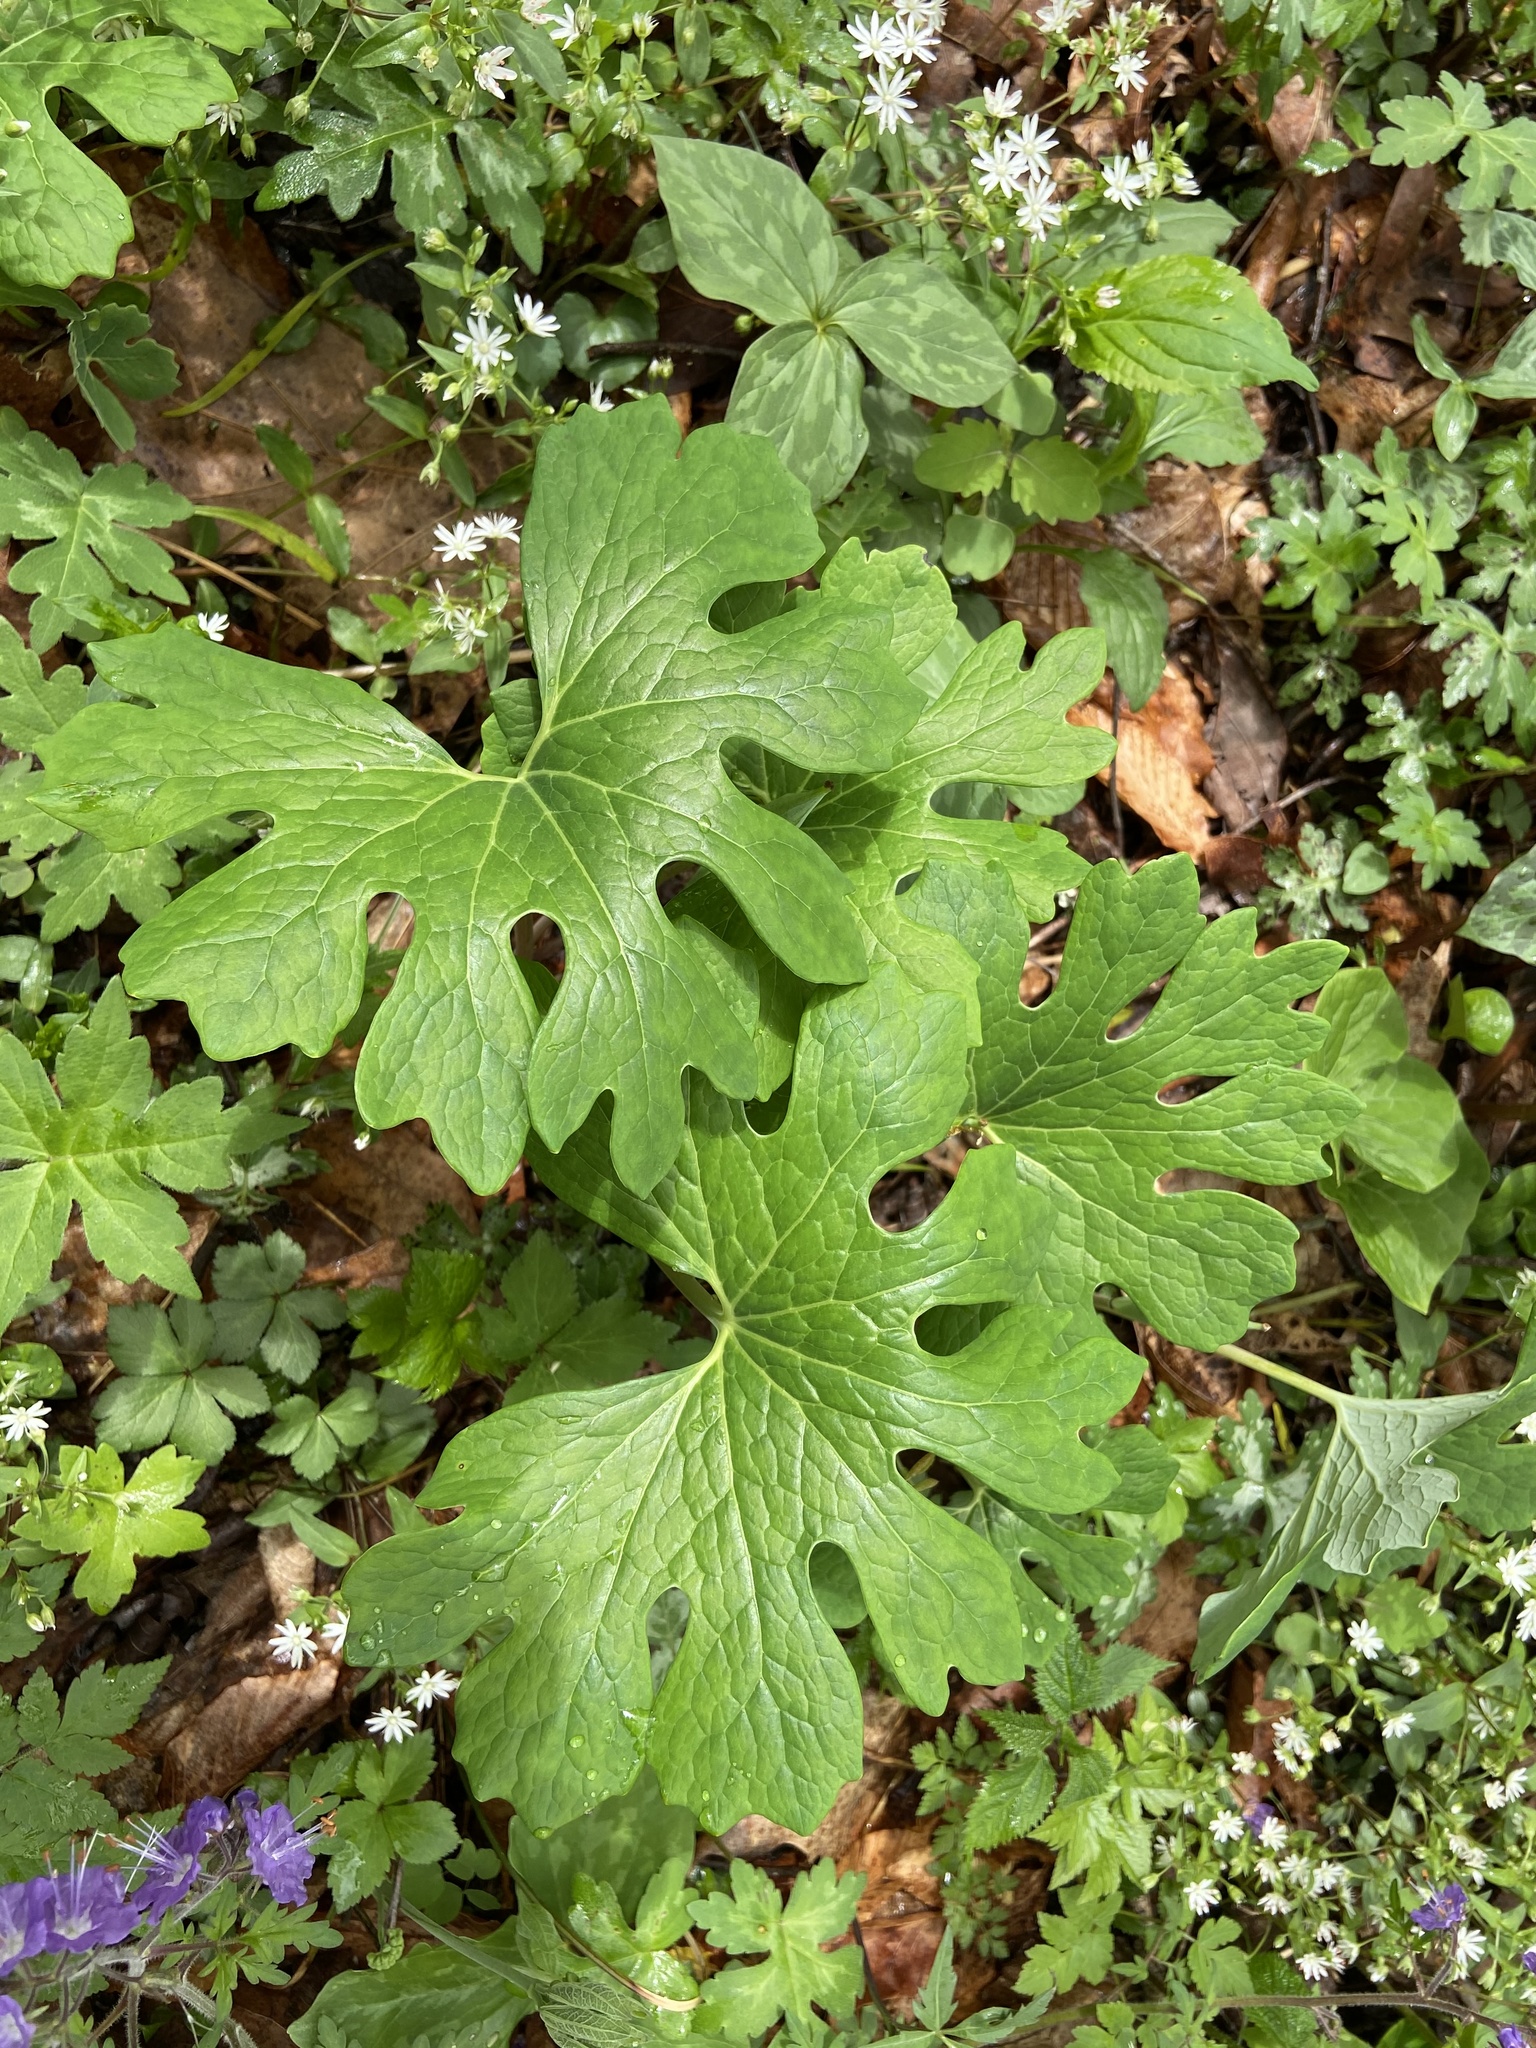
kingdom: Plantae
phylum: Tracheophyta
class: Magnoliopsida
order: Ranunculales
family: Papaveraceae
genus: Sanguinaria
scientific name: Sanguinaria canadensis
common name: Bloodroot
